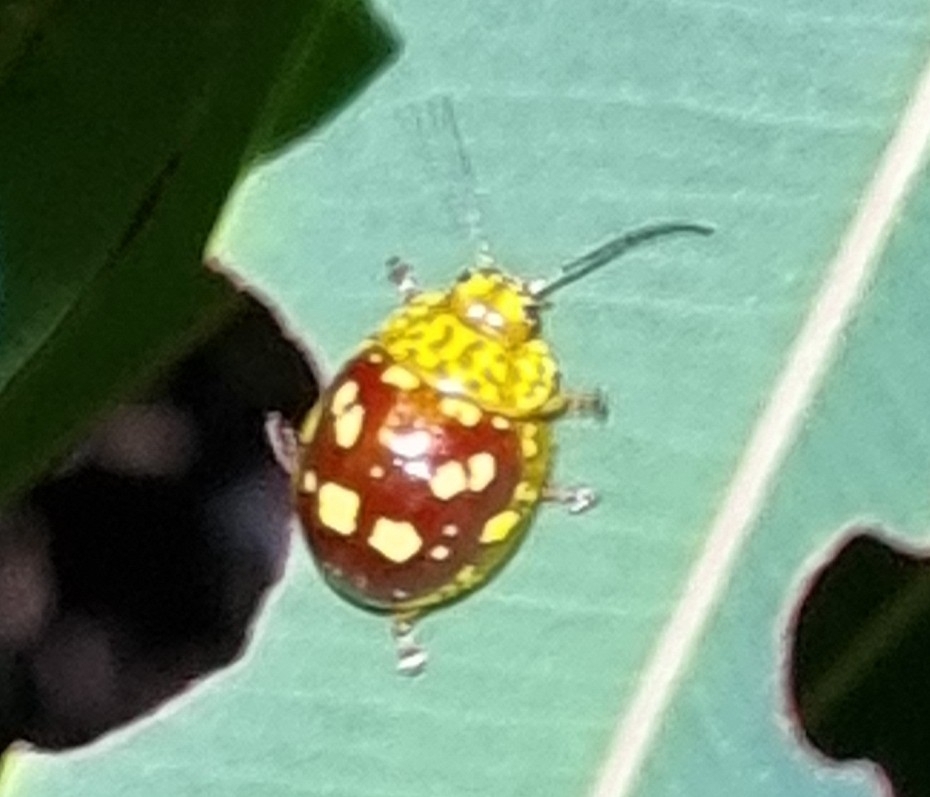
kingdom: Animalia
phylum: Arthropoda
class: Insecta
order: Coleoptera
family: Chrysomelidae
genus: Paropsis
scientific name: Paropsis maculata
